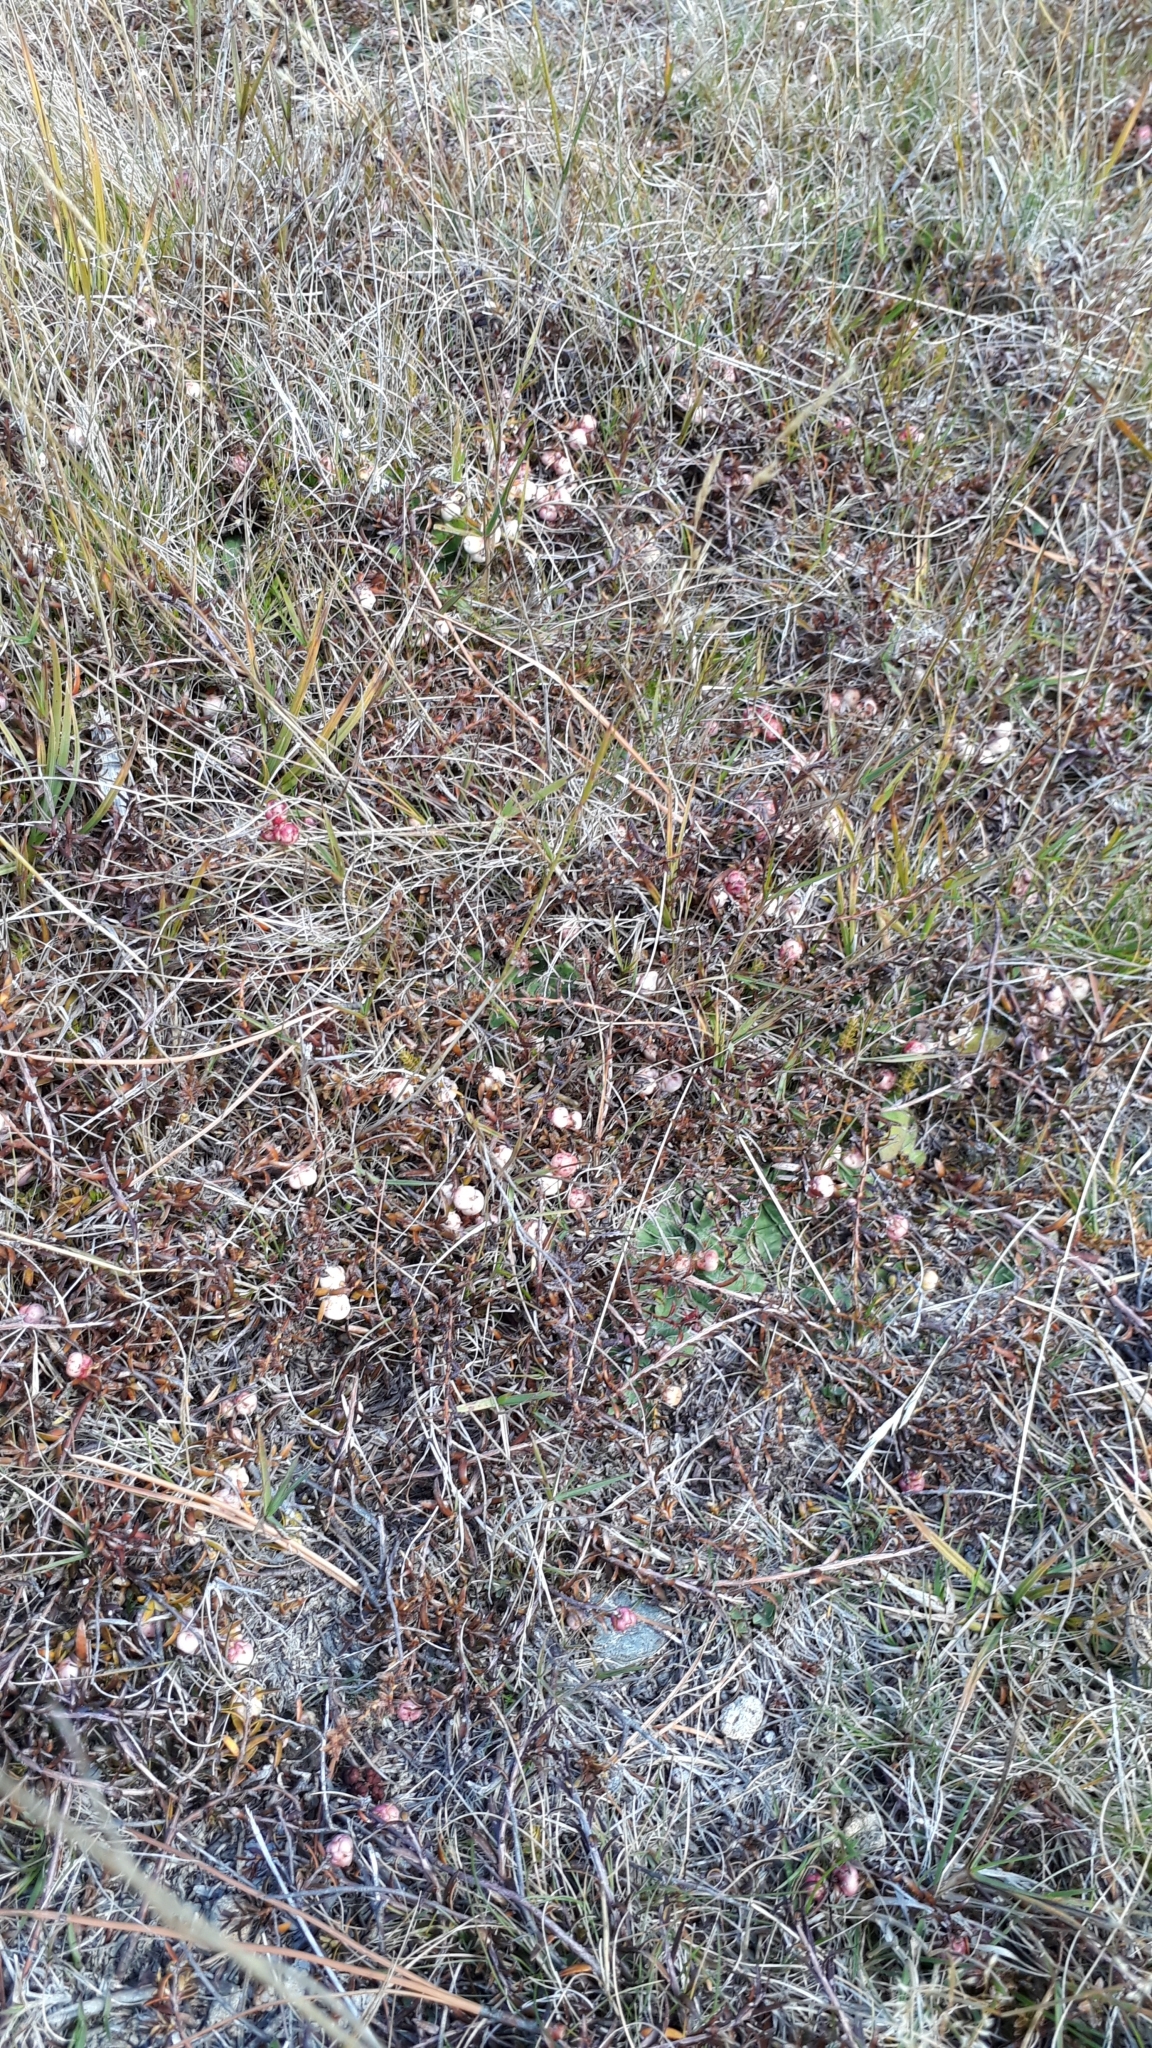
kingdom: Plantae
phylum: Tracheophyta
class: Magnoliopsida
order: Ericales
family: Ericaceae
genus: Gaultheria
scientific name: Gaultheria macrostigma
